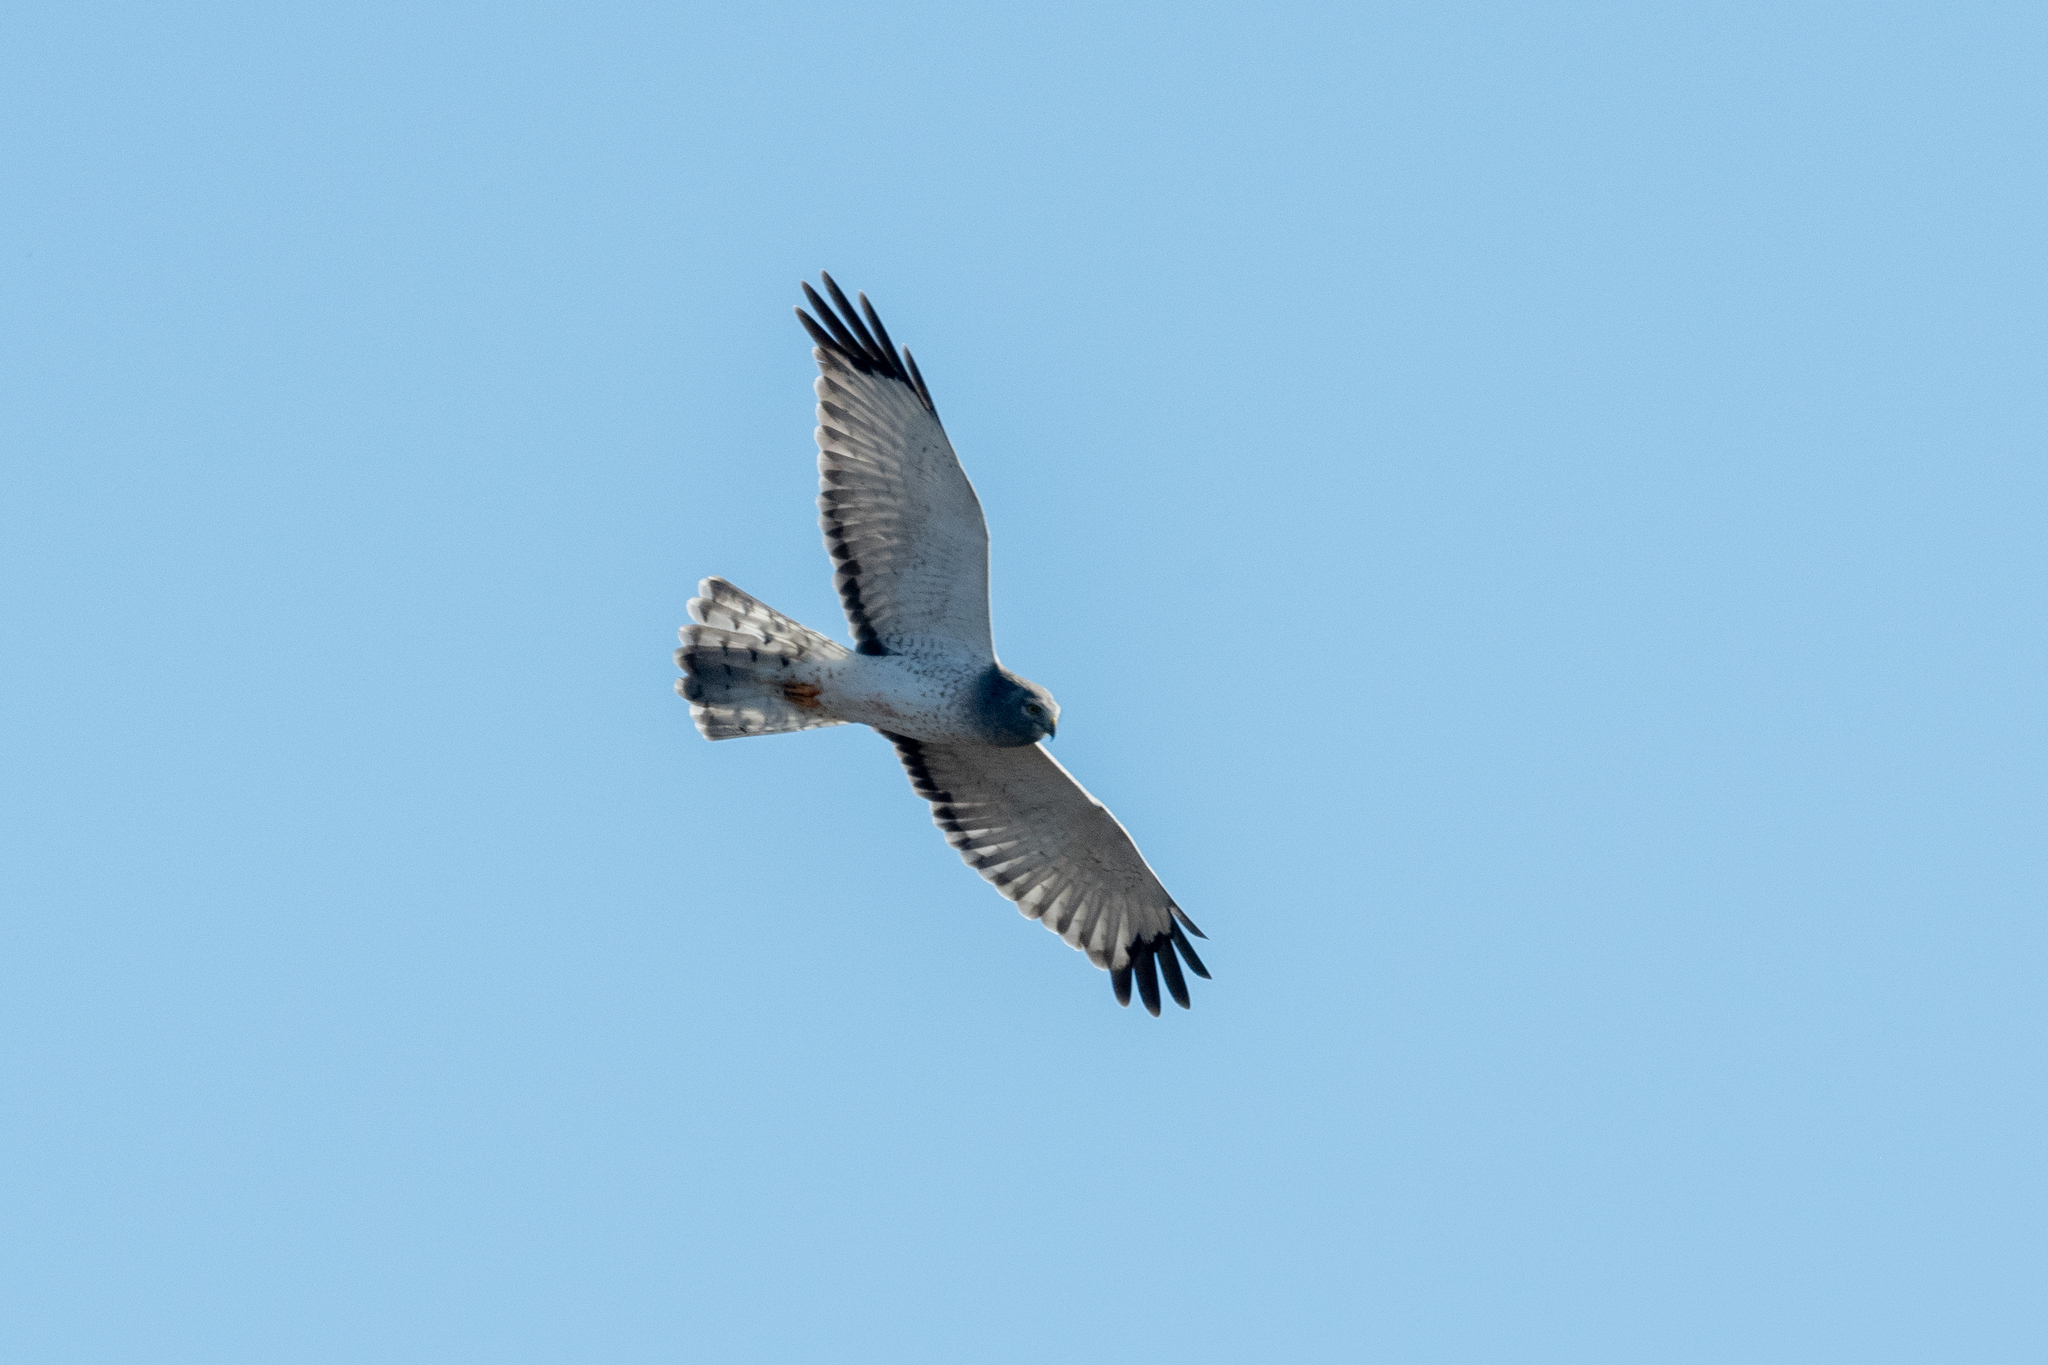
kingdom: Animalia
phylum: Chordata
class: Aves
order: Accipitriformes
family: Accipitridae
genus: Circus
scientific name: Circus cyaneus
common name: Hen harrier
